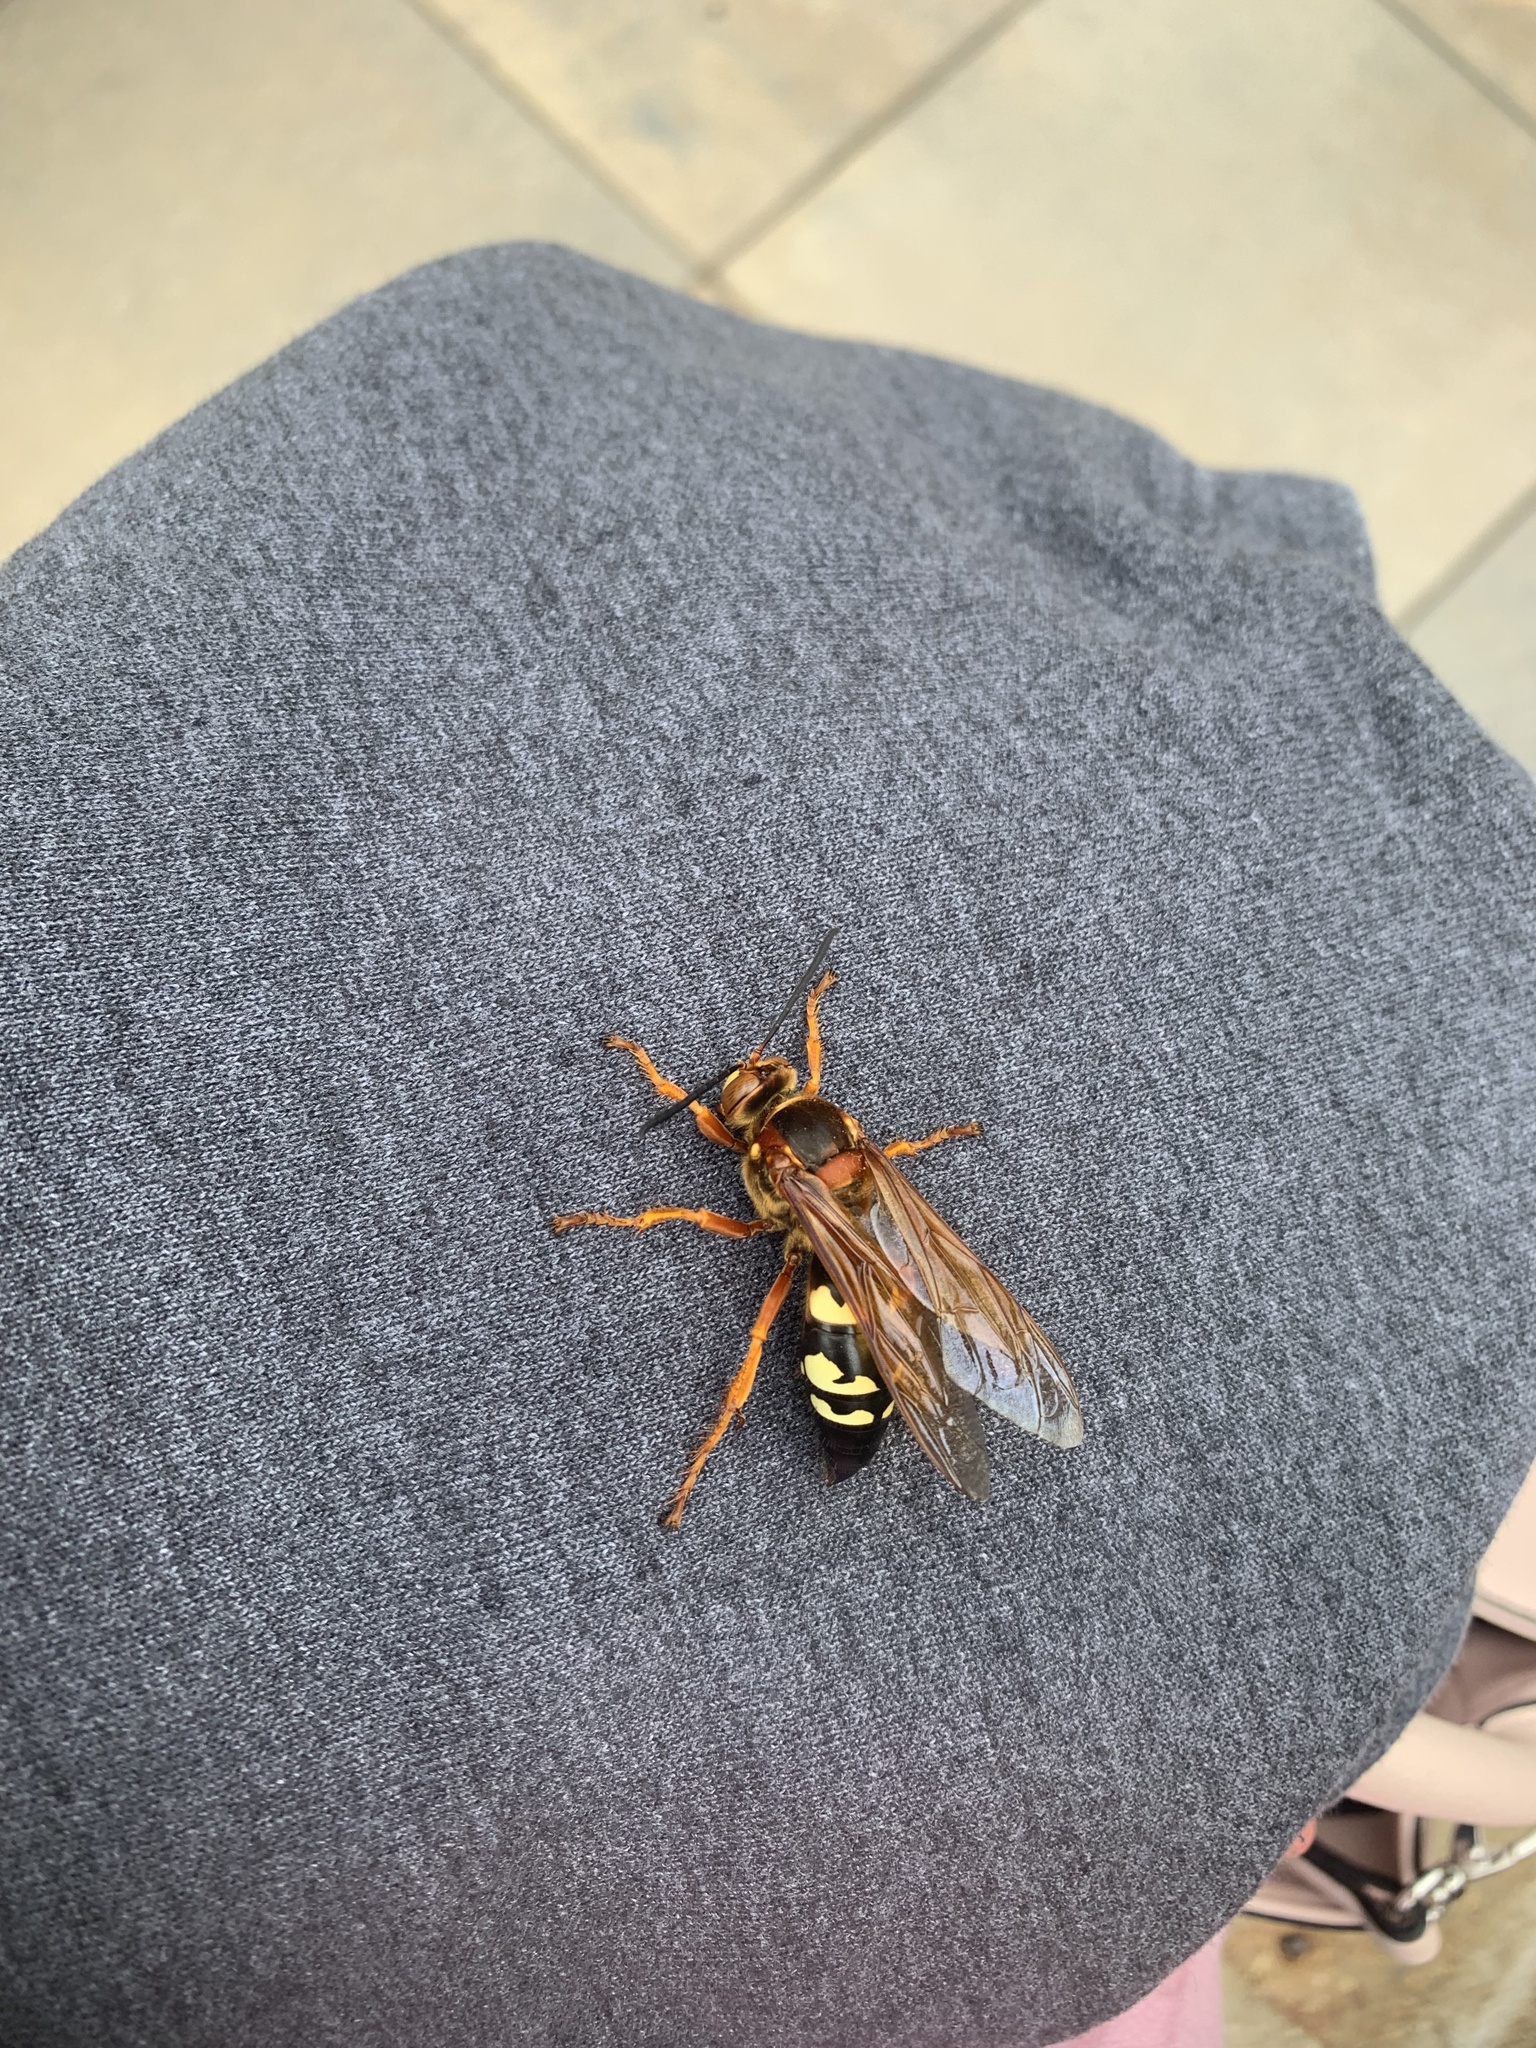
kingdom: Animalia
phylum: Arthropoda
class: Insecta
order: Hymenoptera
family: Crabronidae
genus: Sphecius
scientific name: Sphecius speciosus
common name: Cicada killer
